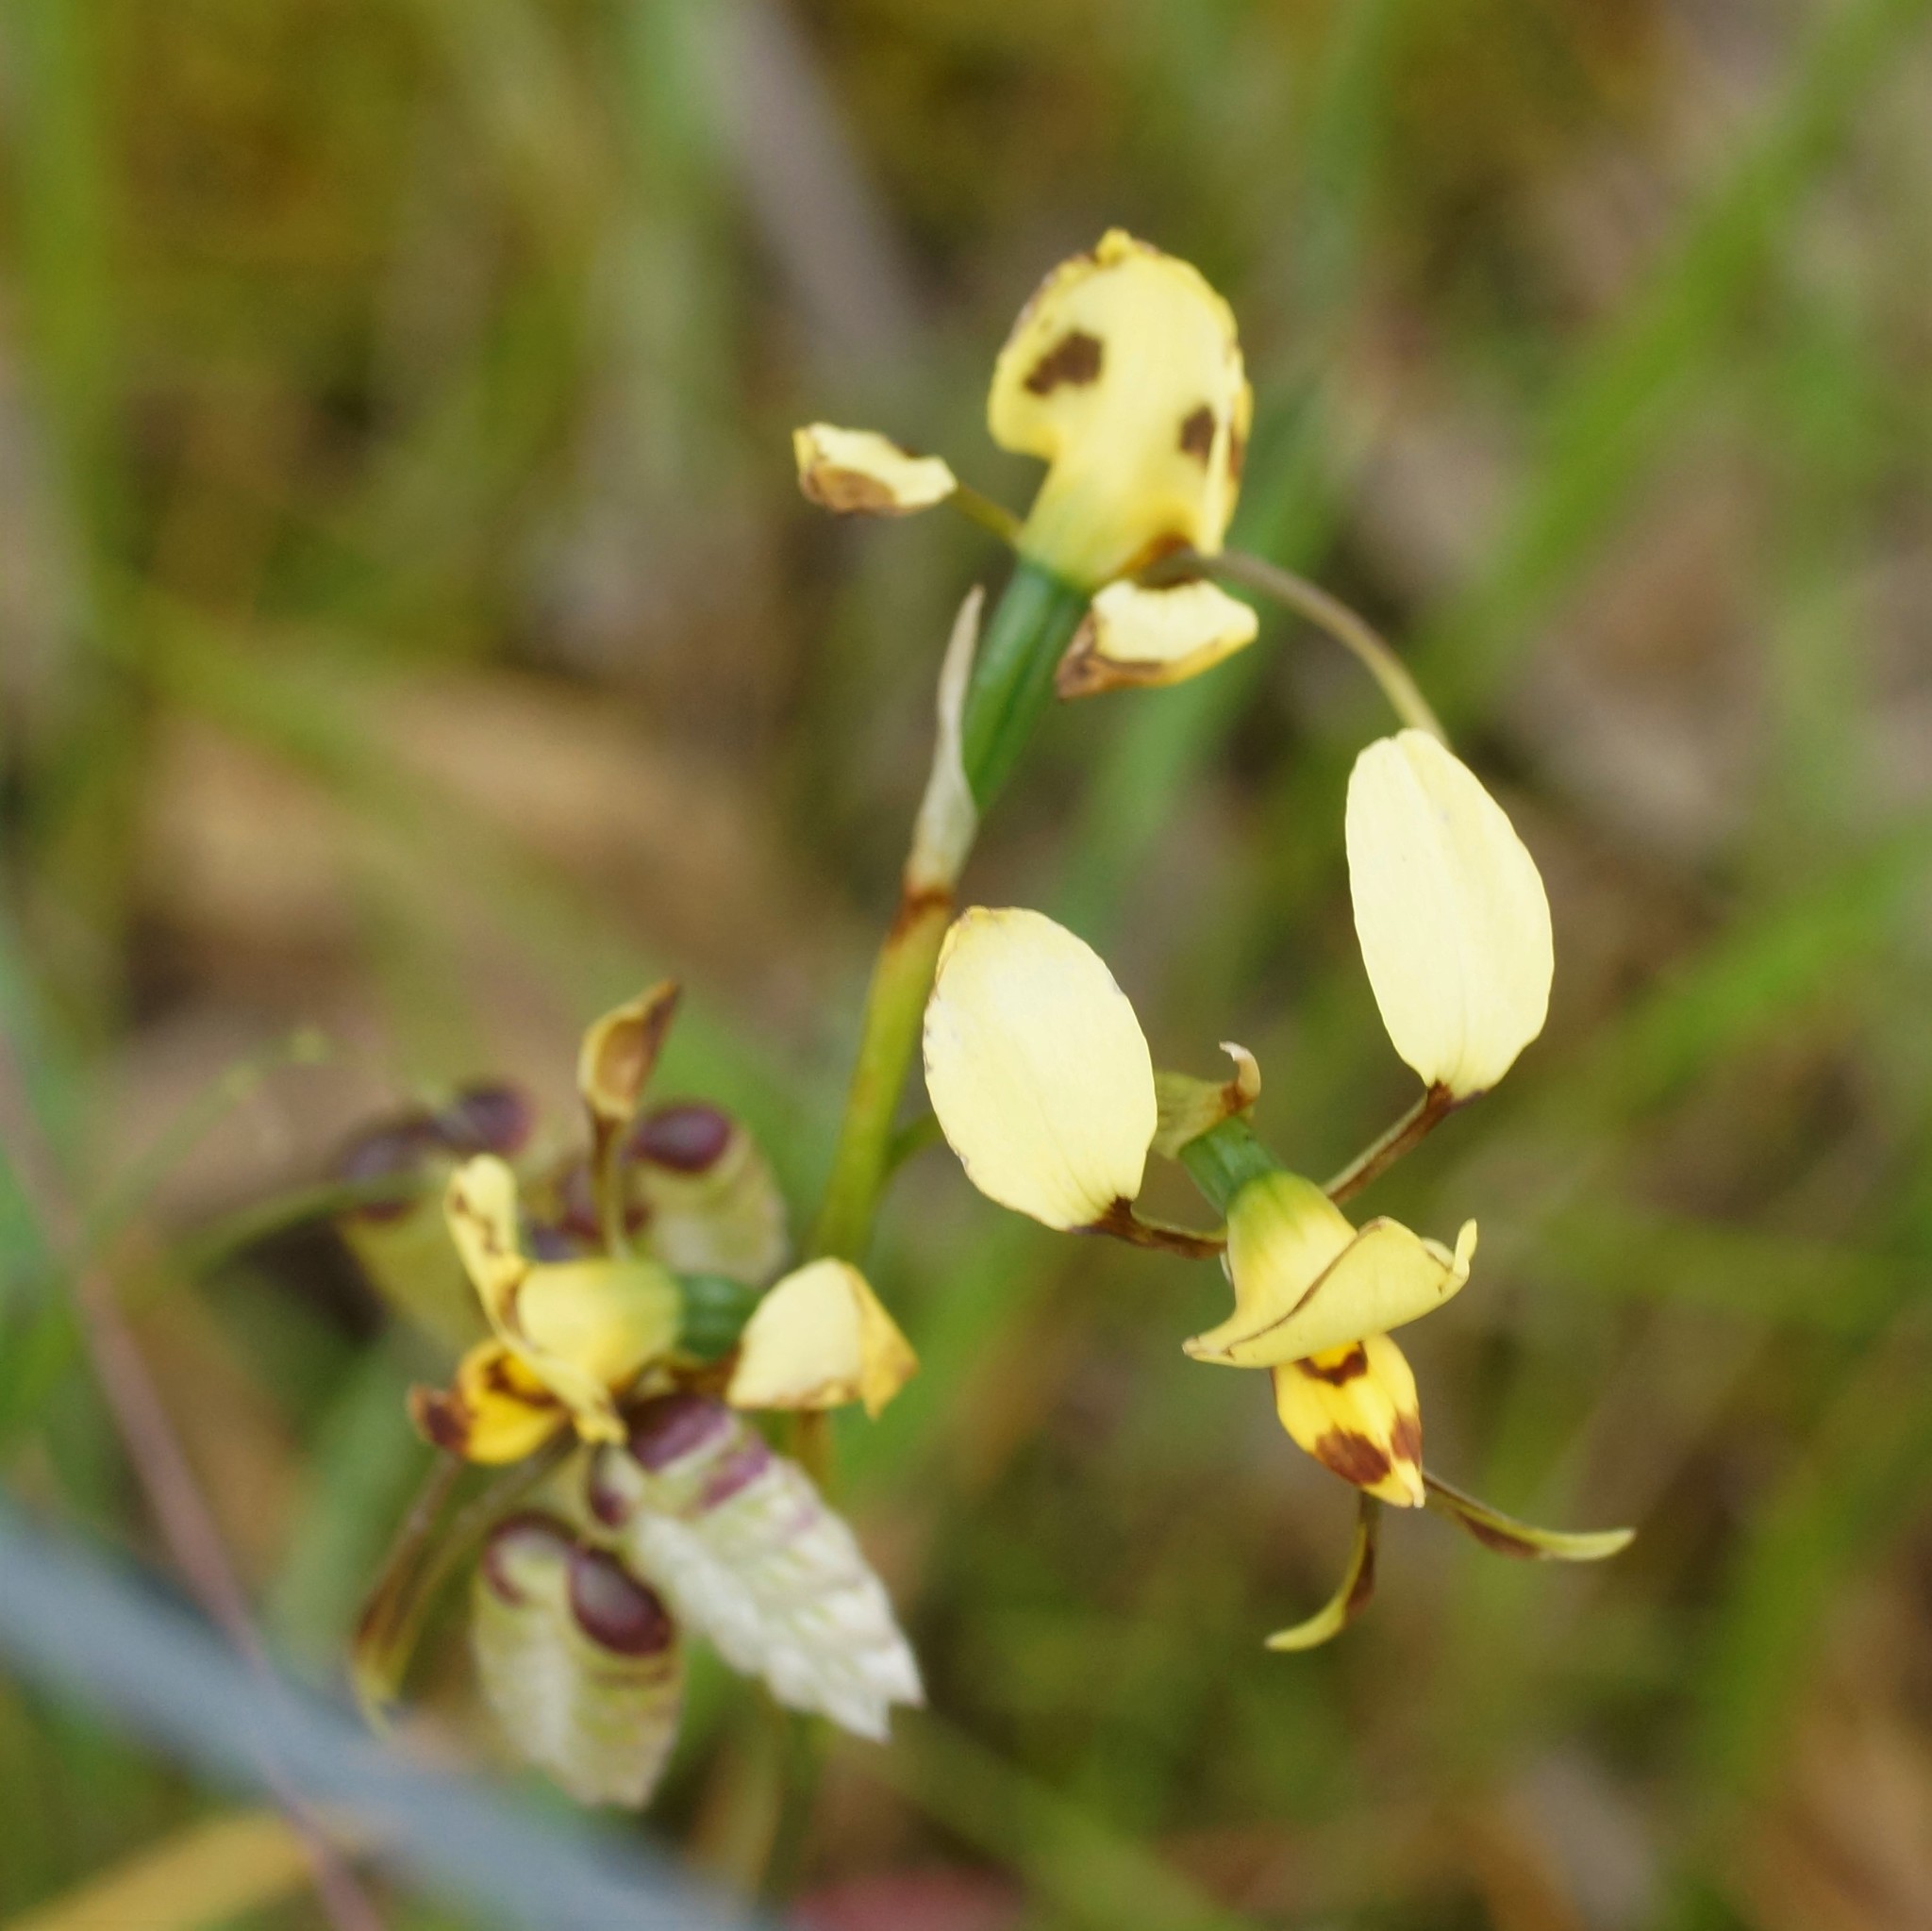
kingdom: Plantae
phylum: Tracheophyta
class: Liliopsida
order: Asparagales
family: Orchidaceae
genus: Diuris
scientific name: Diuris sulphurea
